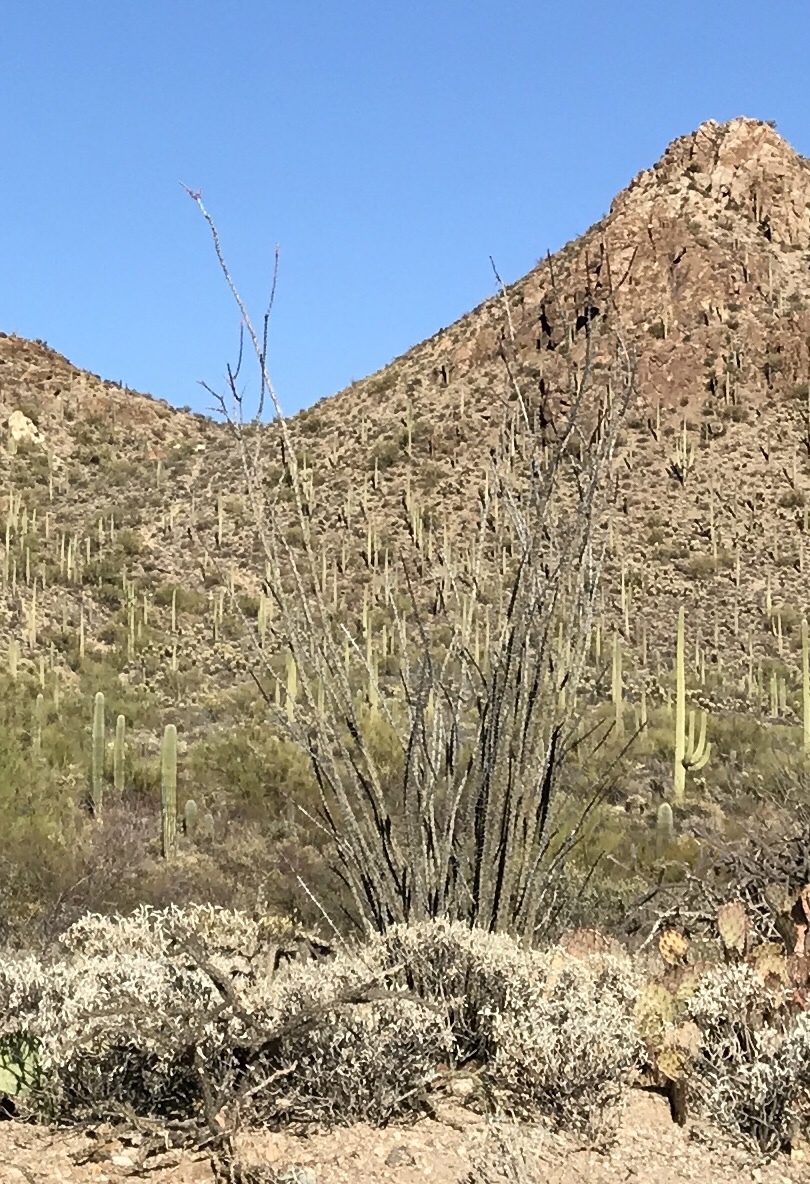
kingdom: Plantae
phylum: Tracheophyta
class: Magnoliopsida
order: Ericales
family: Fouquieriaceae
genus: Fouquieria
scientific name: Fouquieria splendens
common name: Vine-cactus
